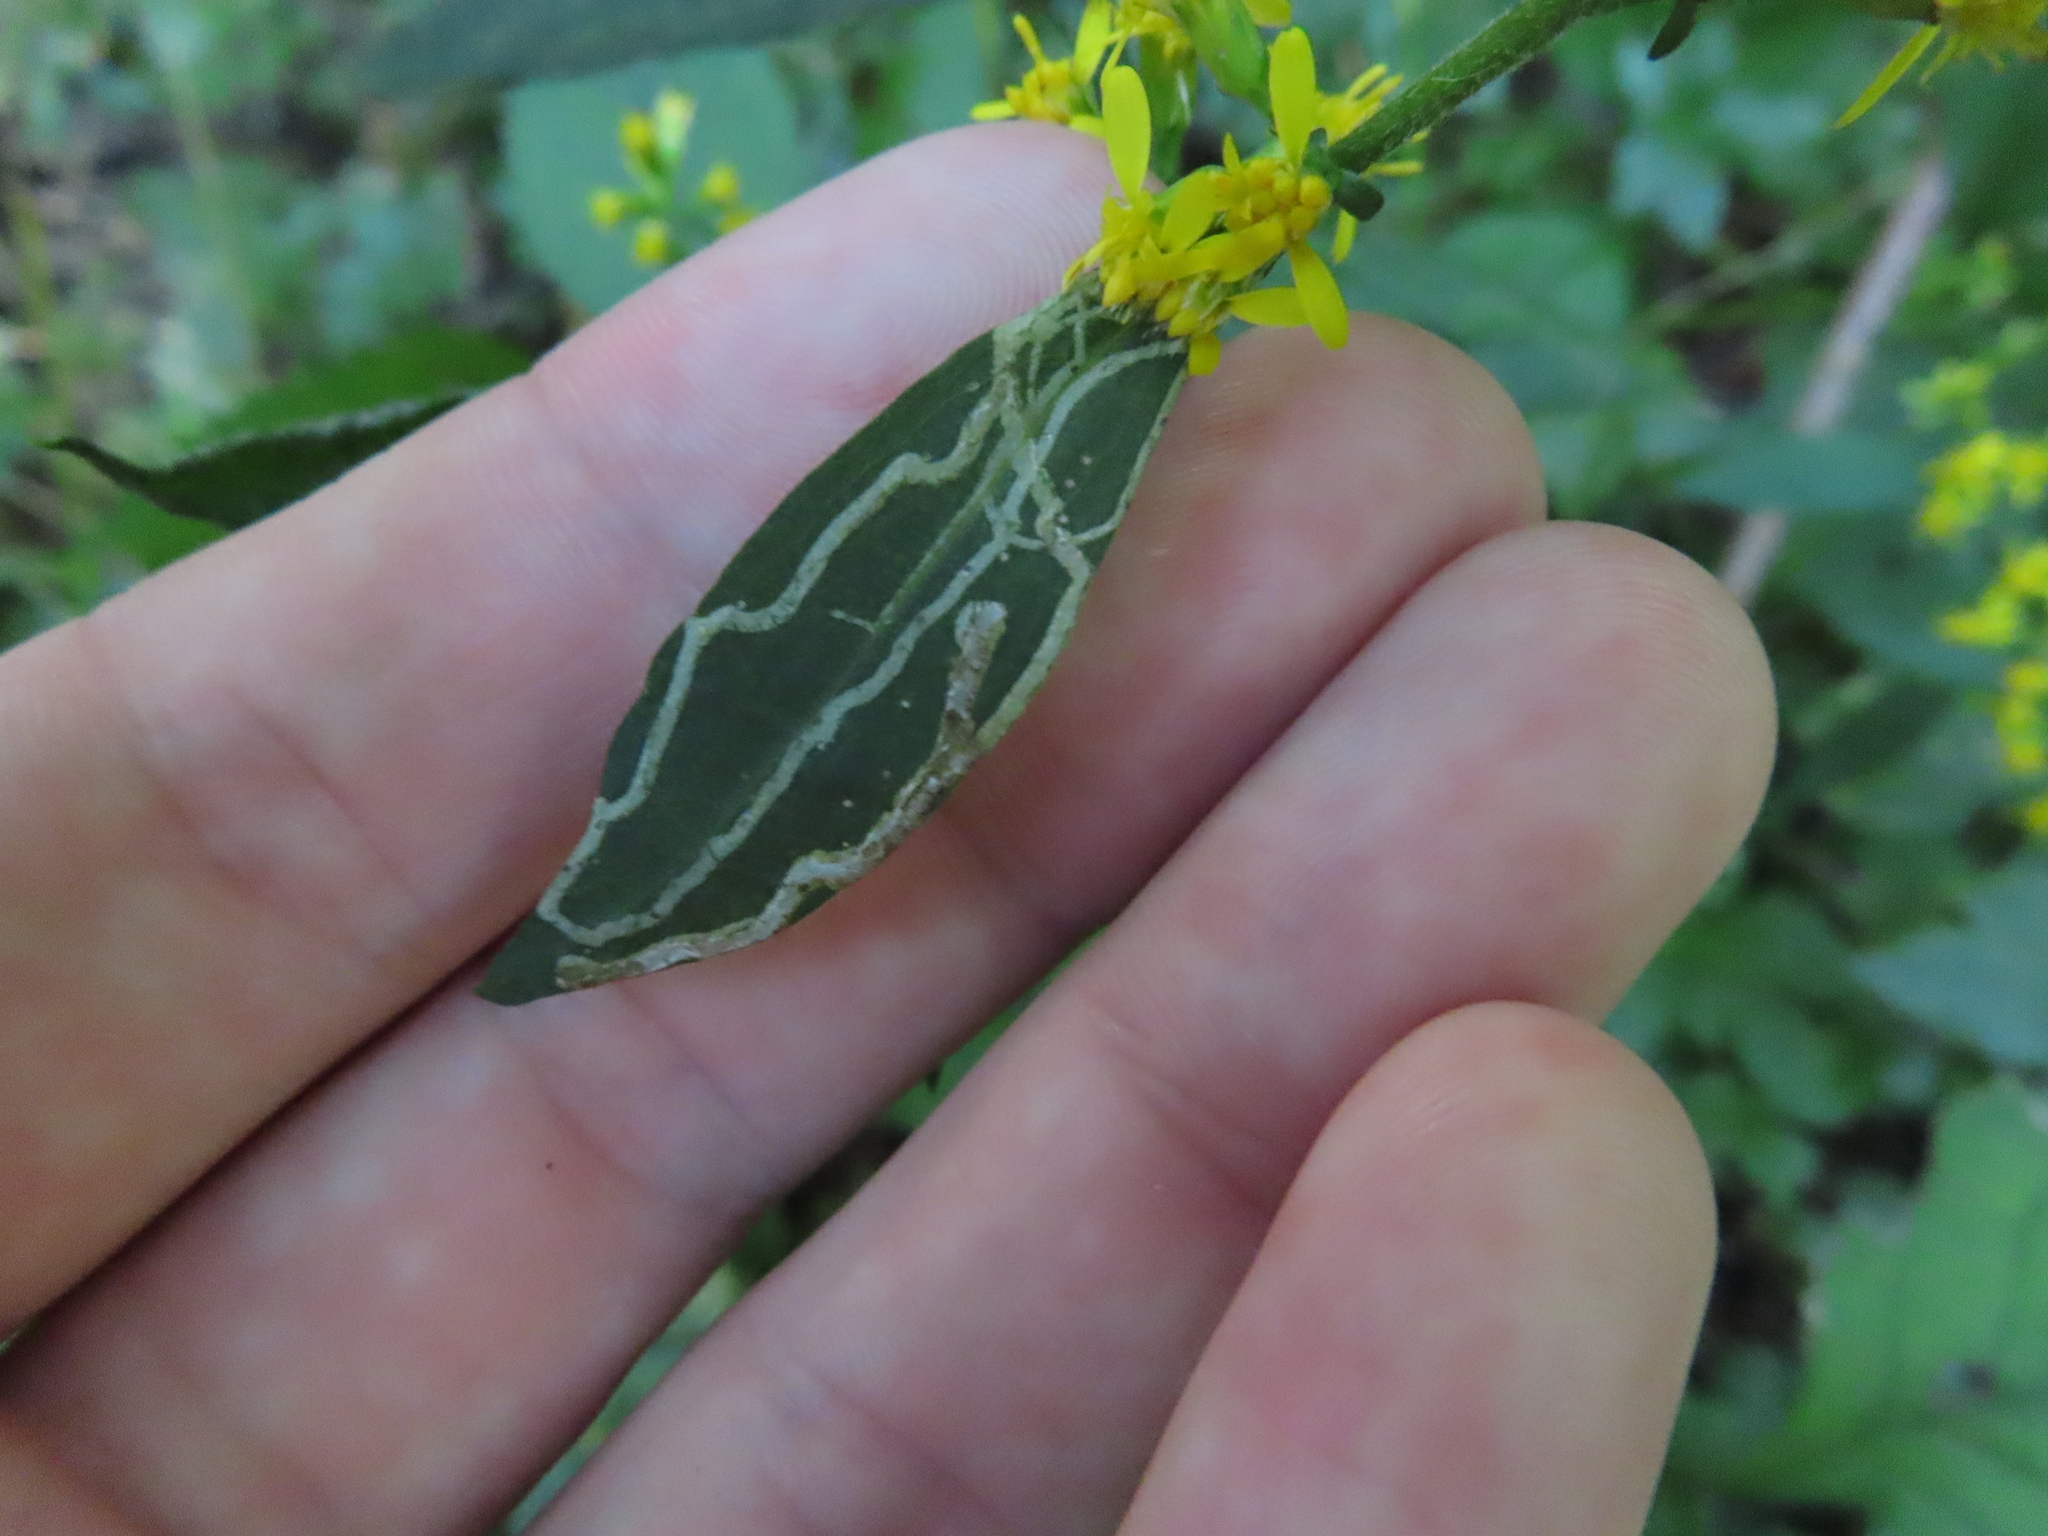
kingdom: Animalia
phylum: Arthropoda
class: Insecta
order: Diptera
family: Agromyzidae
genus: Ophiomyia
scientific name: Ophiomyia maura
